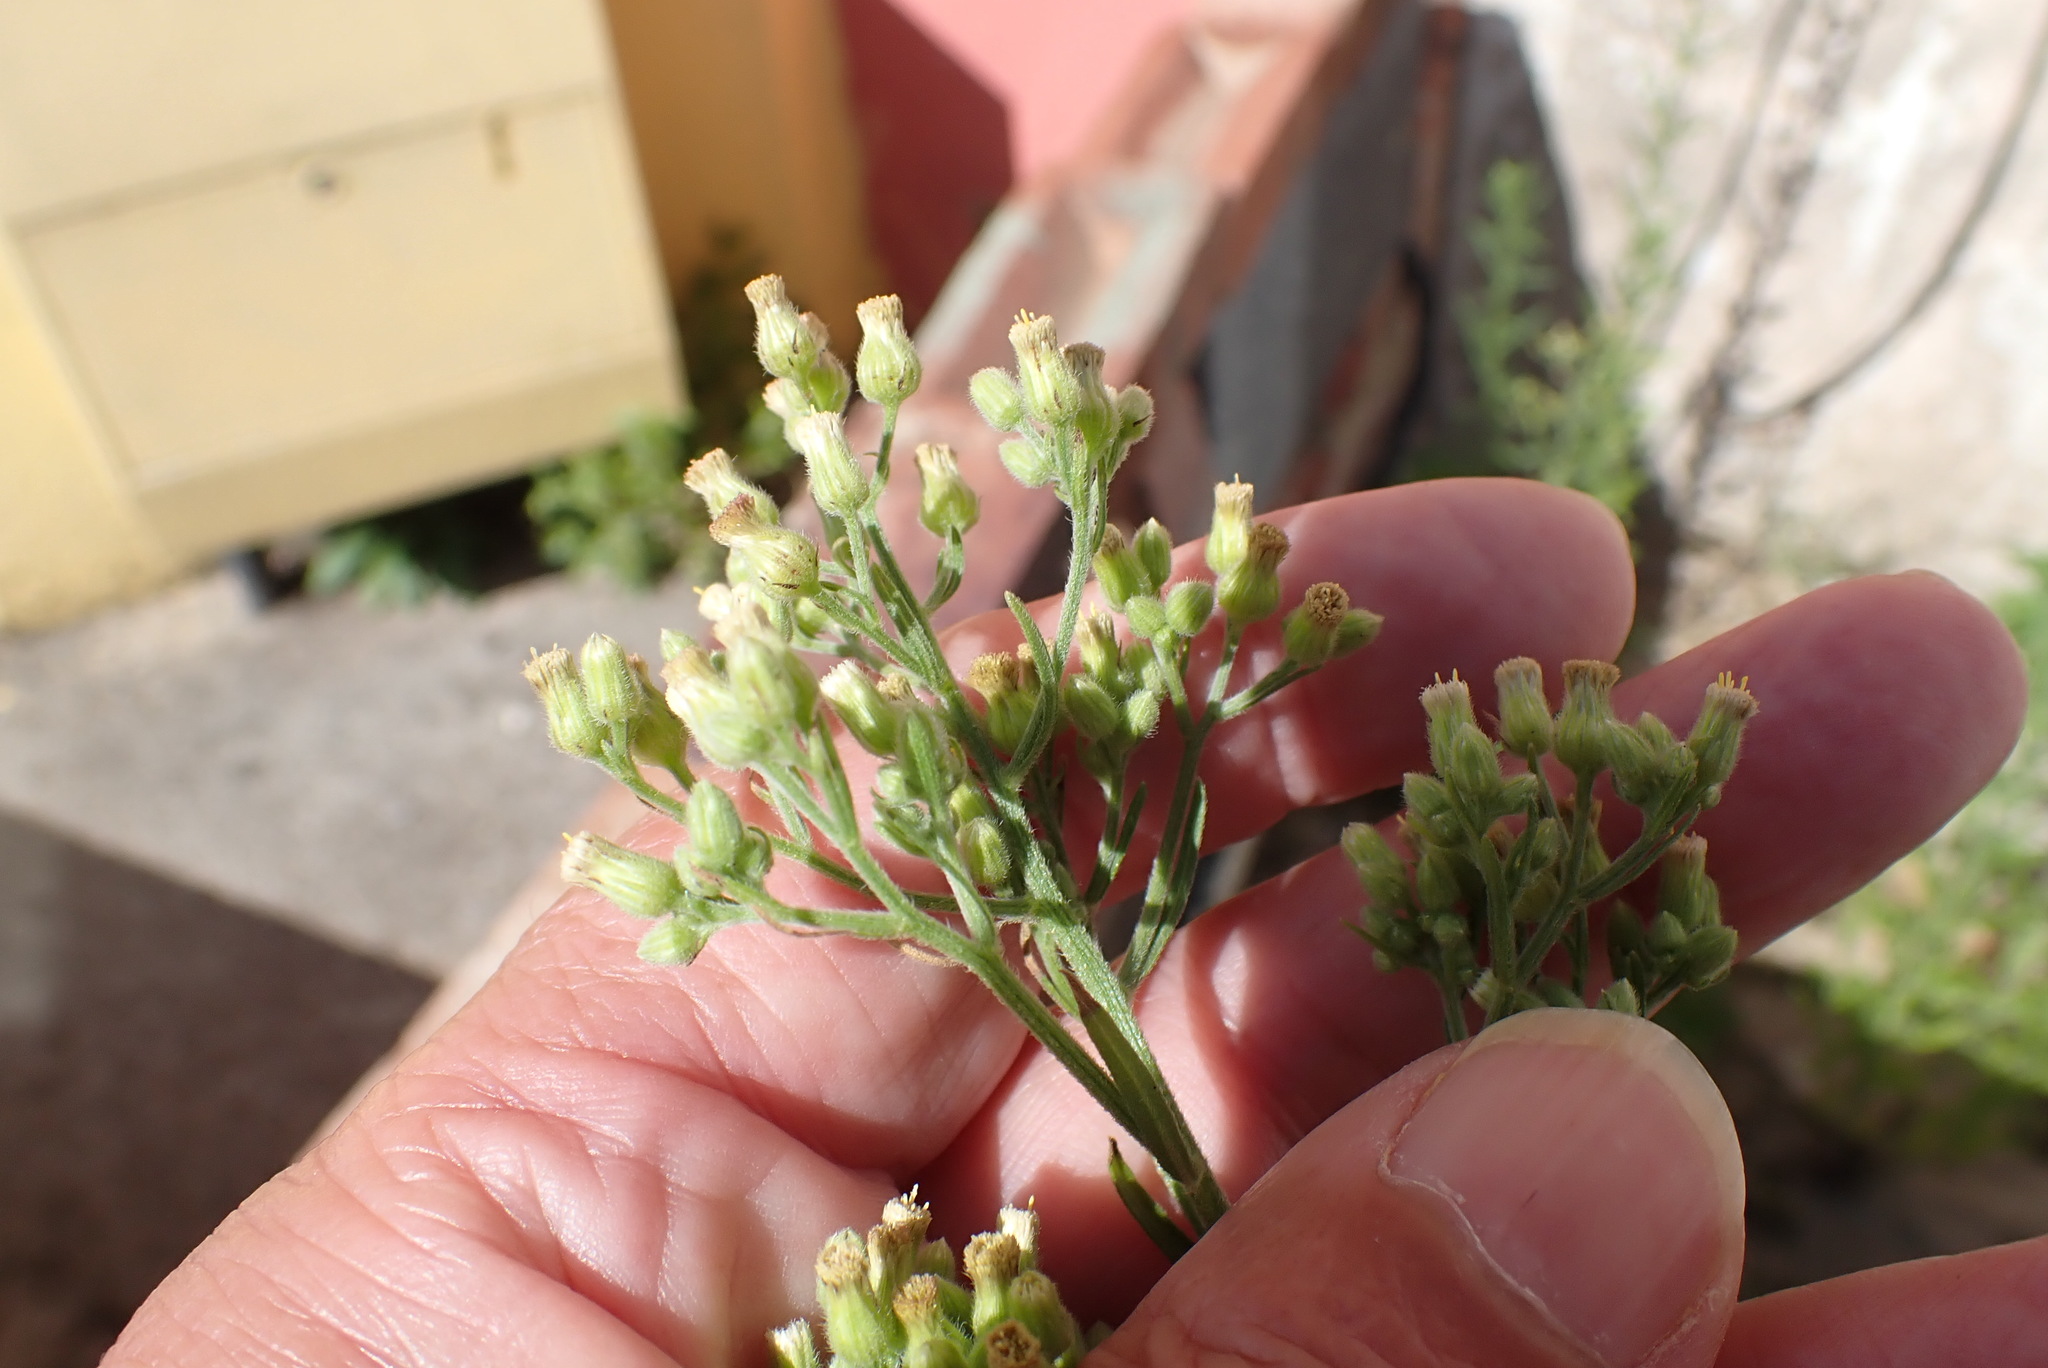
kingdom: Plantae
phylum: Tracheophyta
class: Magnoliopsida
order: Asterales
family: Asteraceae
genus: Erigeron
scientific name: Erigeron sumatrensis
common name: Daisy
